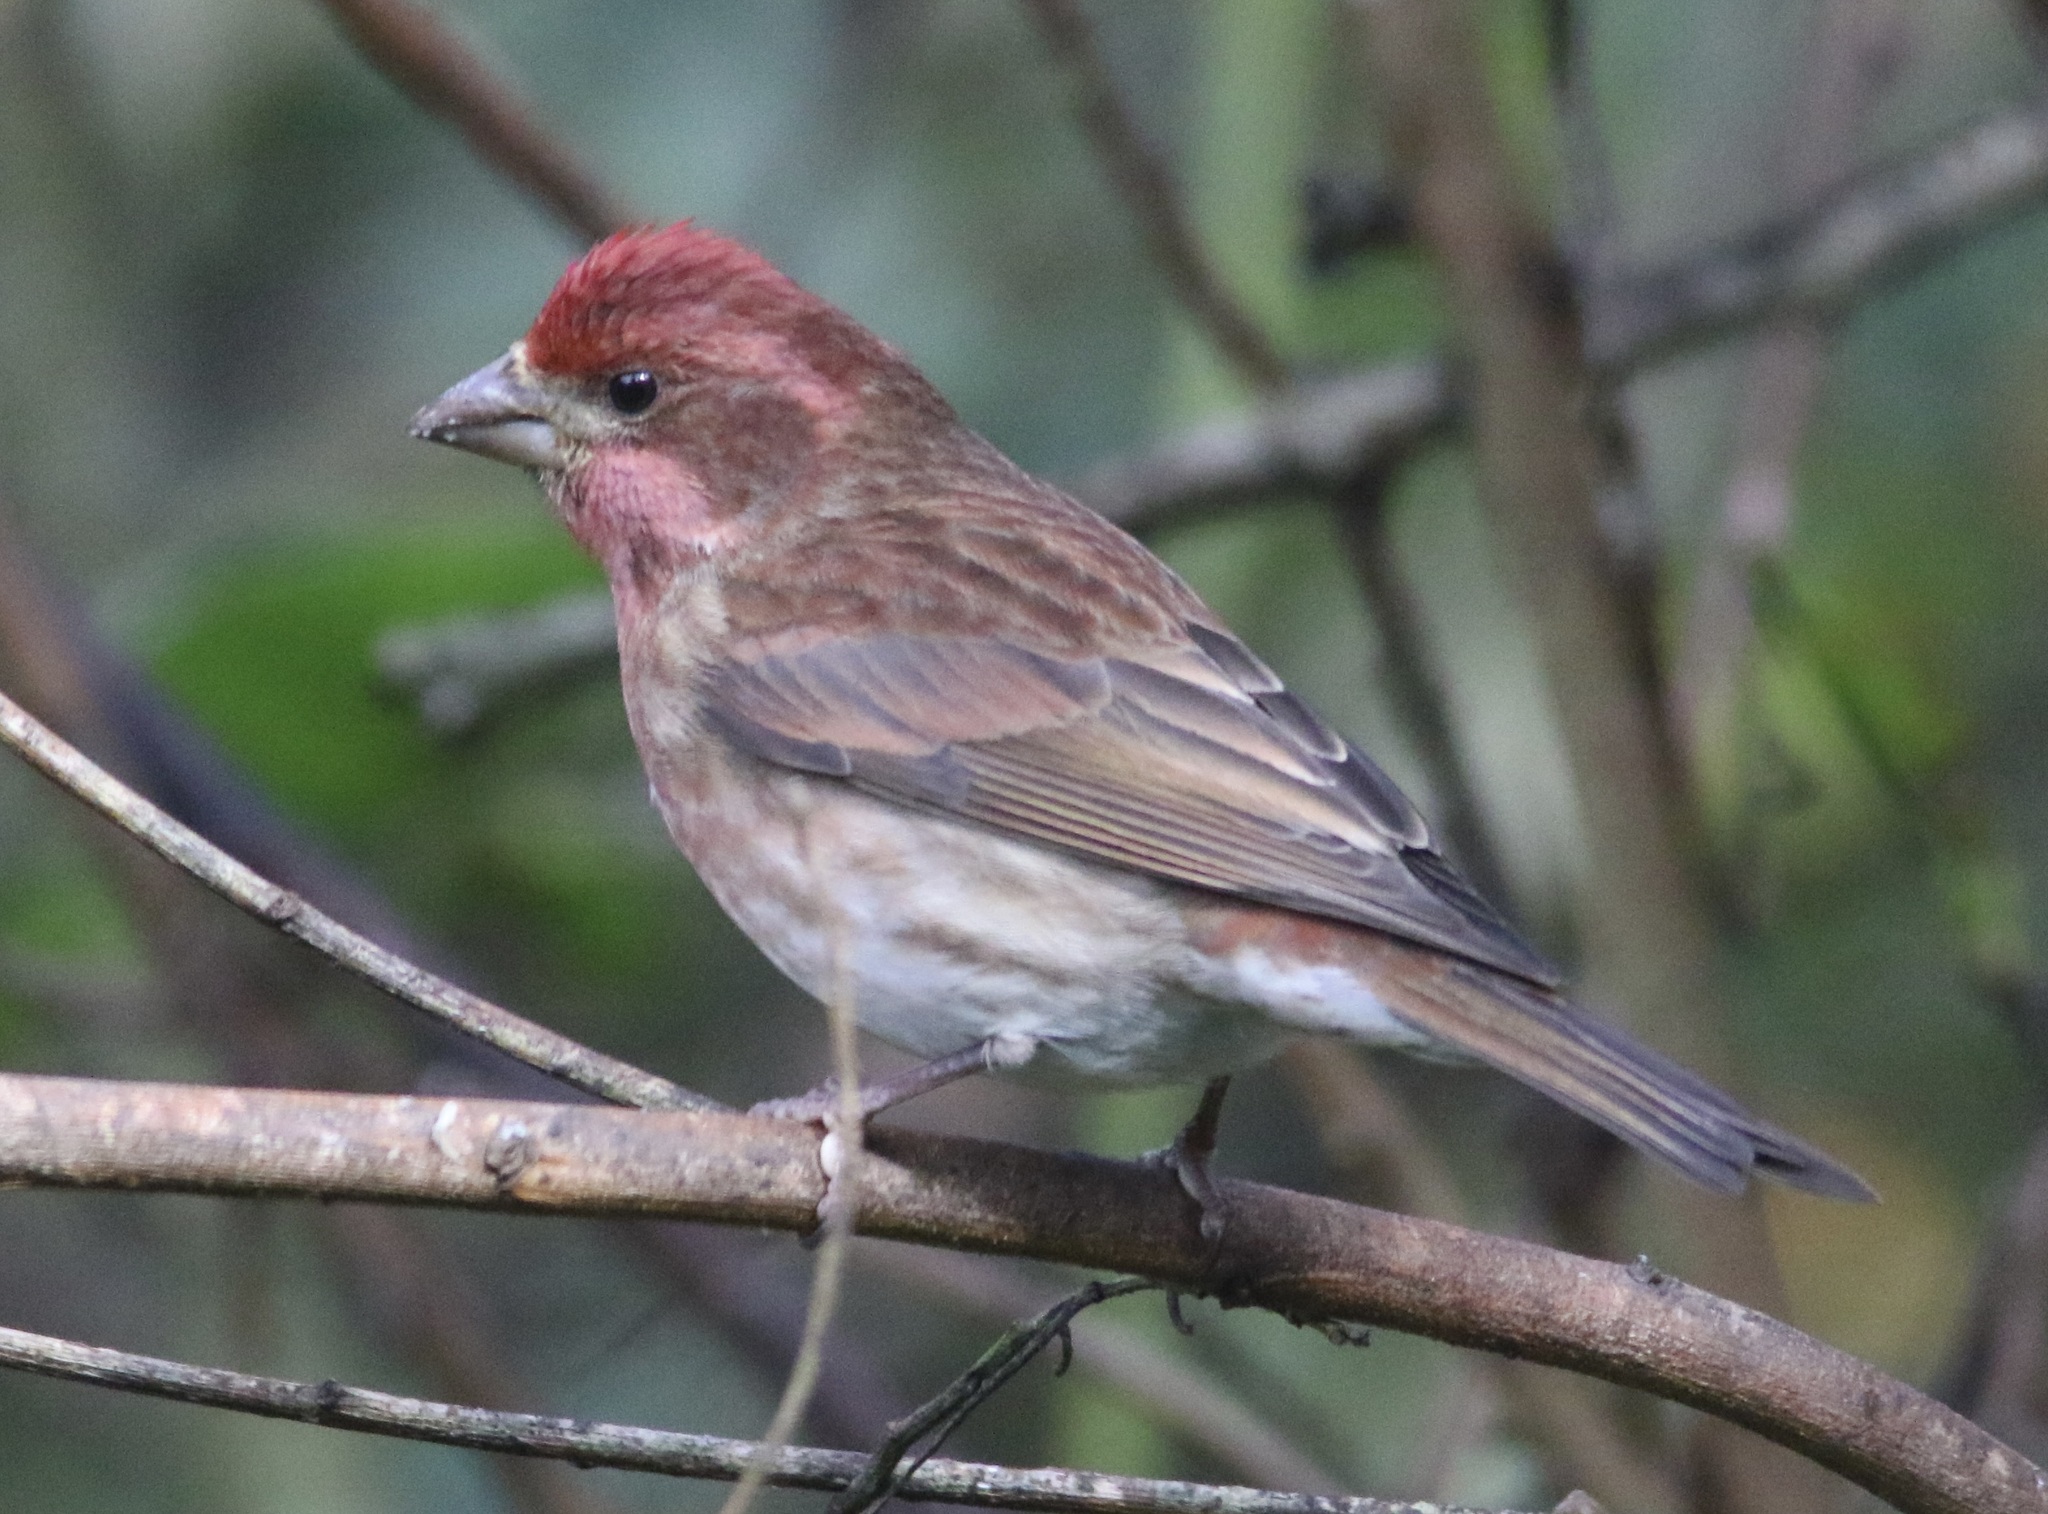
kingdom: Animalia
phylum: Chordata
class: Aves
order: Passeriformes
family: Fringillidae
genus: Haemorhous
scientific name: Haemorhous purpureus
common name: Purple finch
